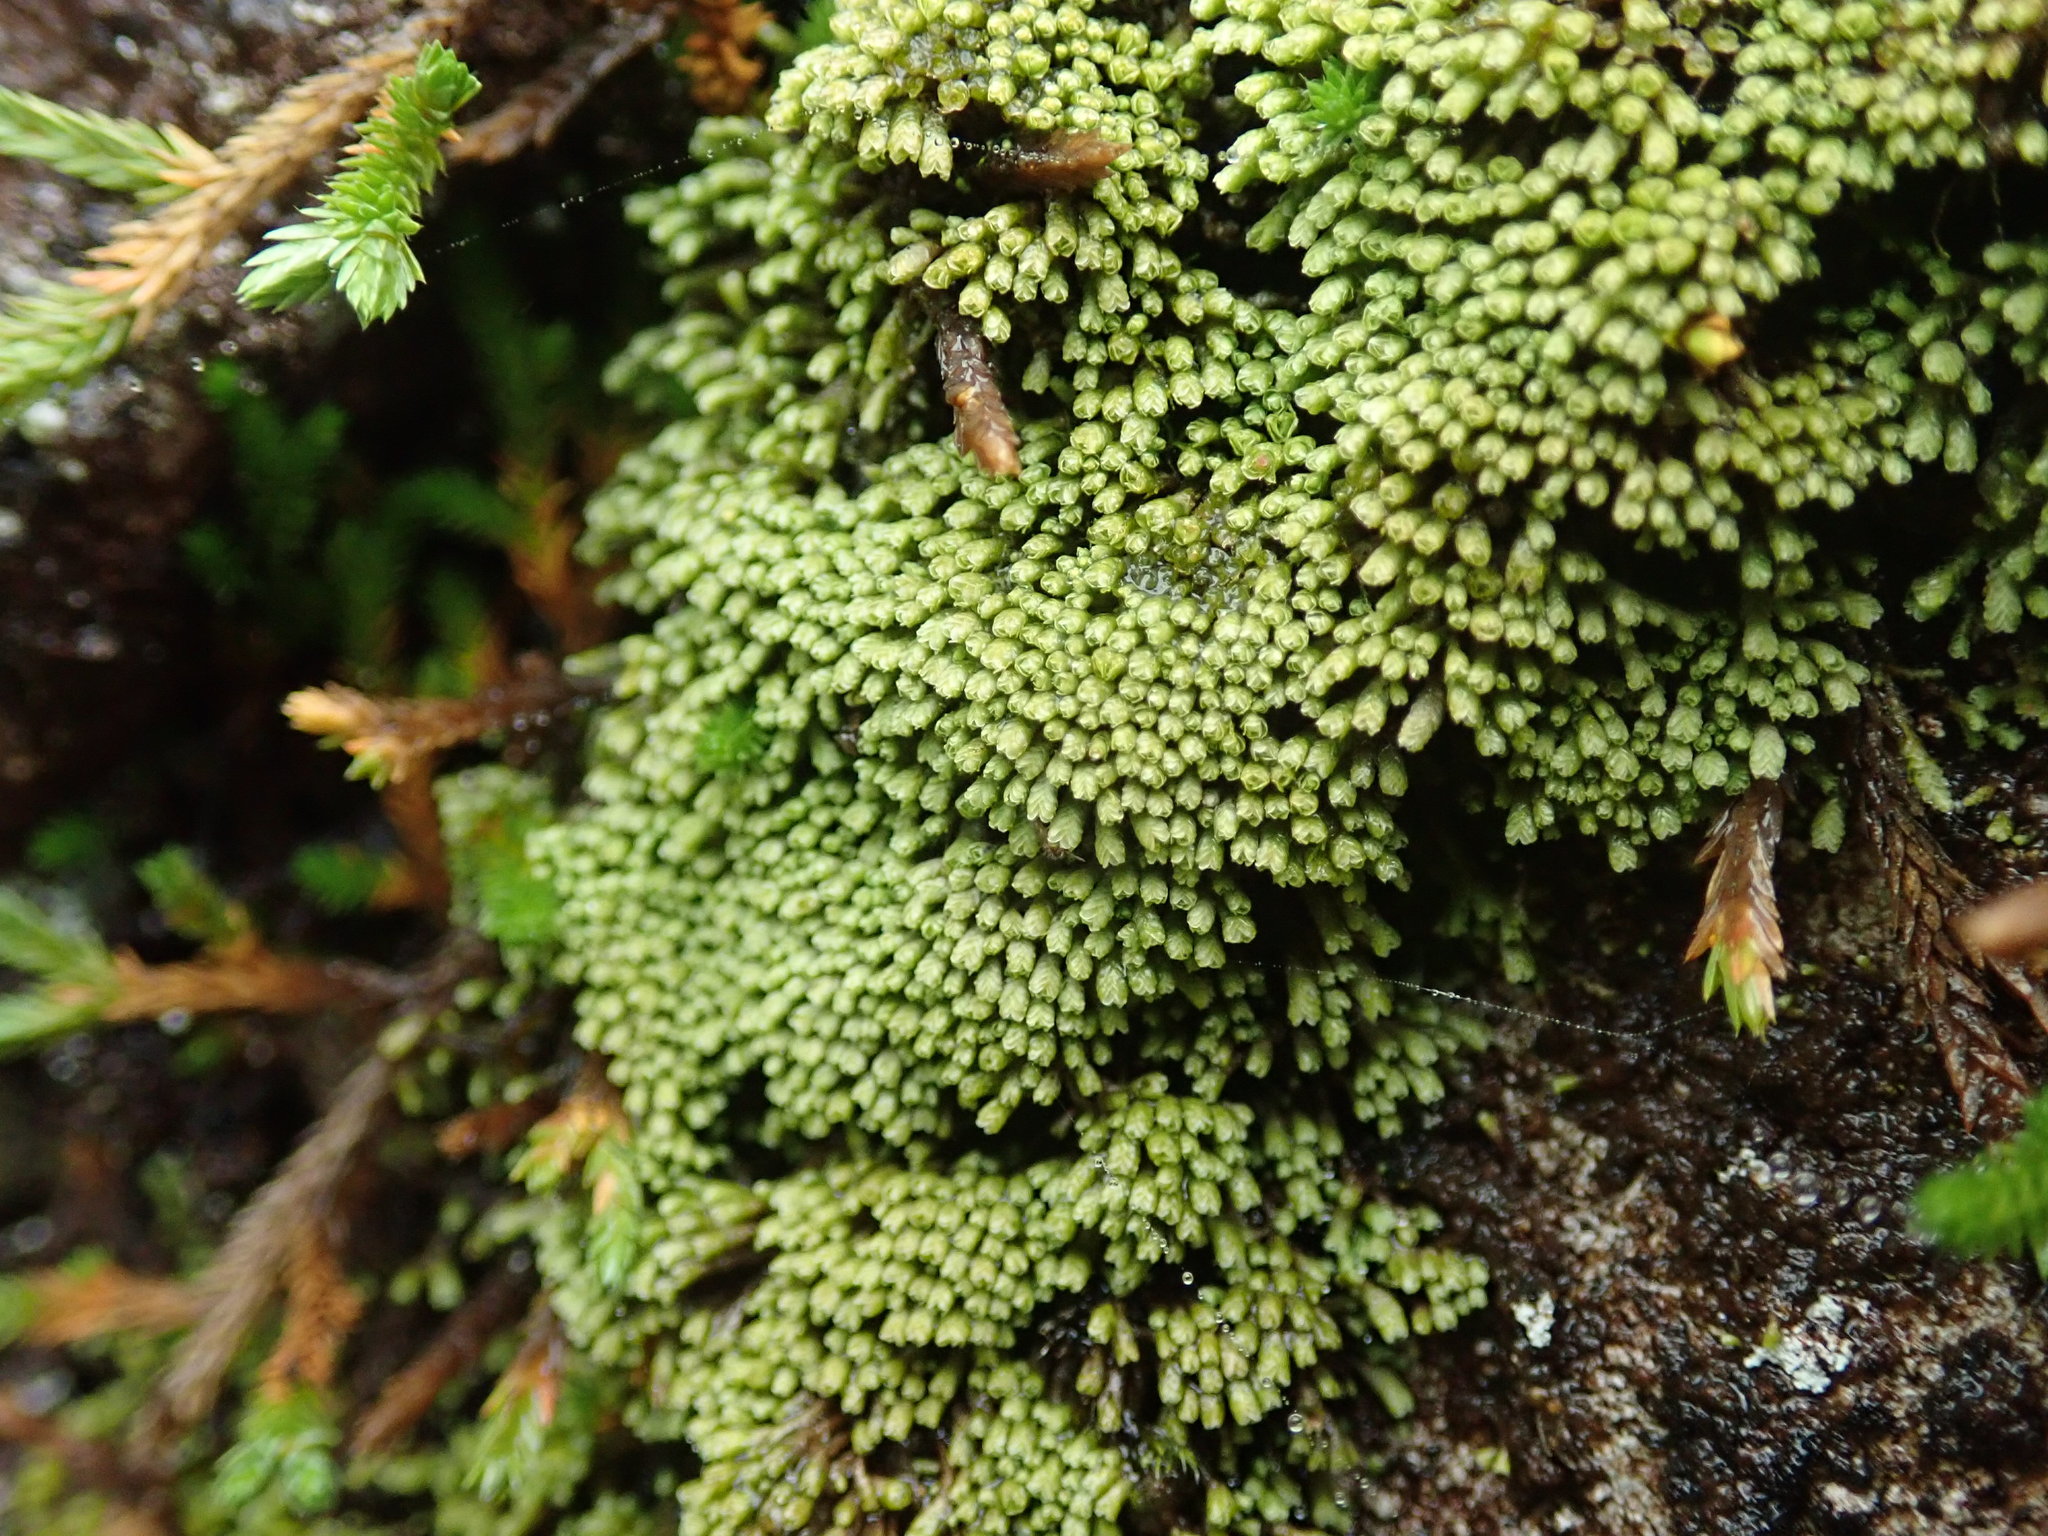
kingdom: Plantae
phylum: Marchantiophyta
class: Jungermanniopsida
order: Jungermanniales
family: Gymnomitriaceae
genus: Gymnomitrion
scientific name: Gymnomitrion obtusum
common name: White frostwort
